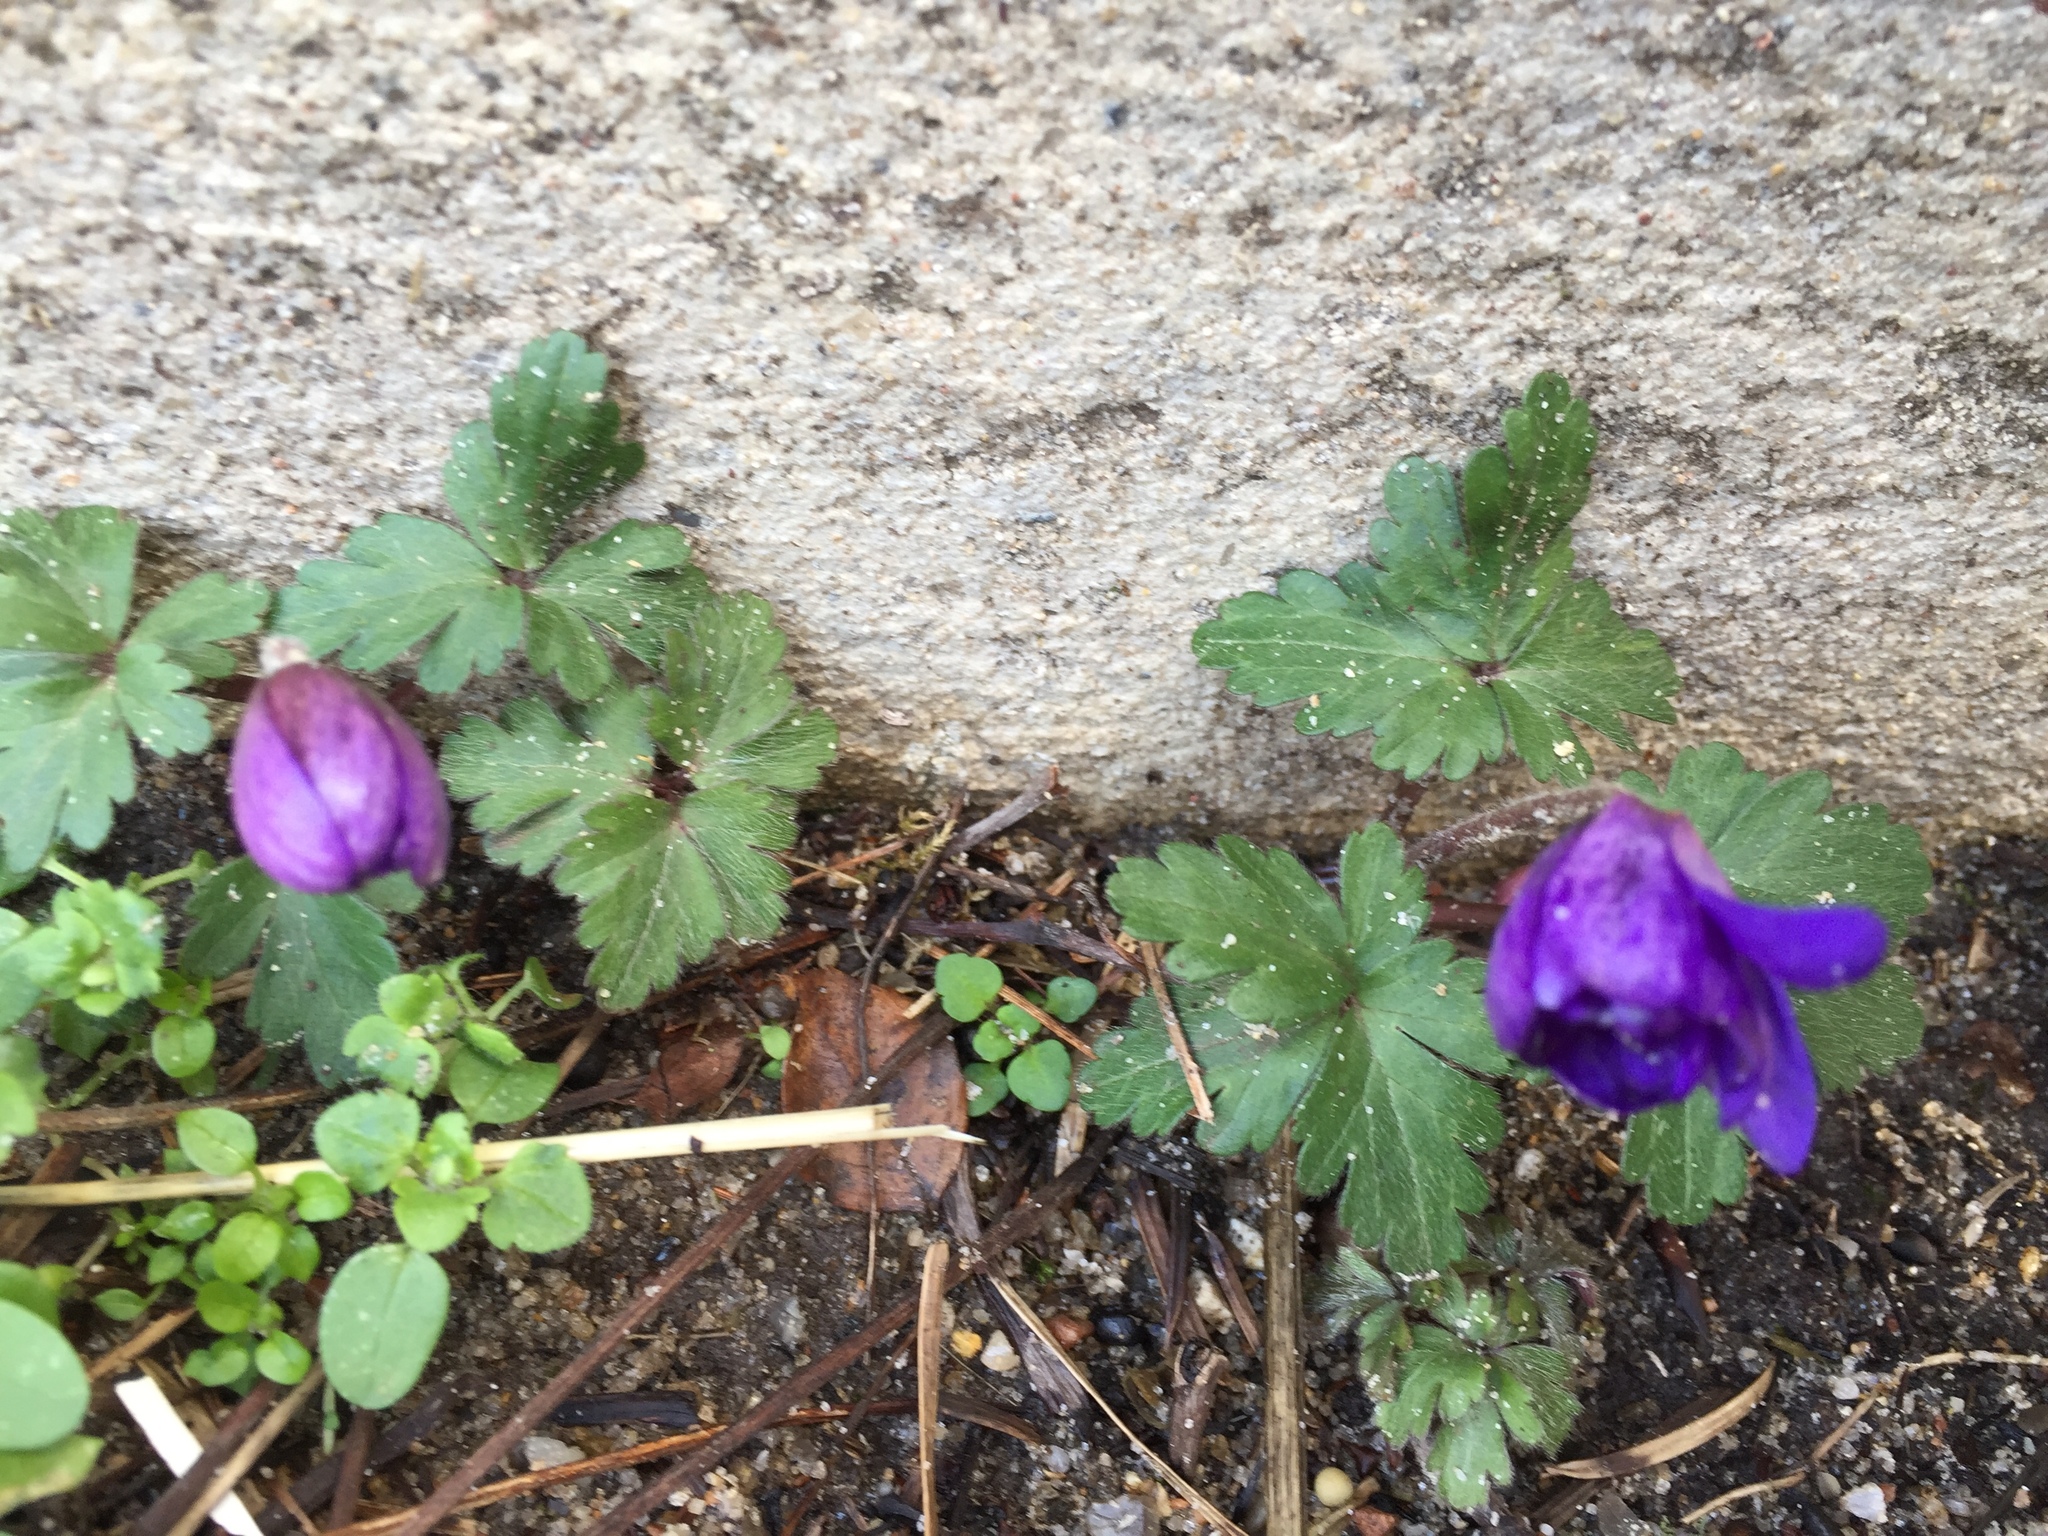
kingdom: Plantae
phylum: Tracheophyta
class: Magnoliopsida
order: Ranunculales
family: Ranunculaceae
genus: Anemone
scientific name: Anemone blanda
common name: Balkan anemone
